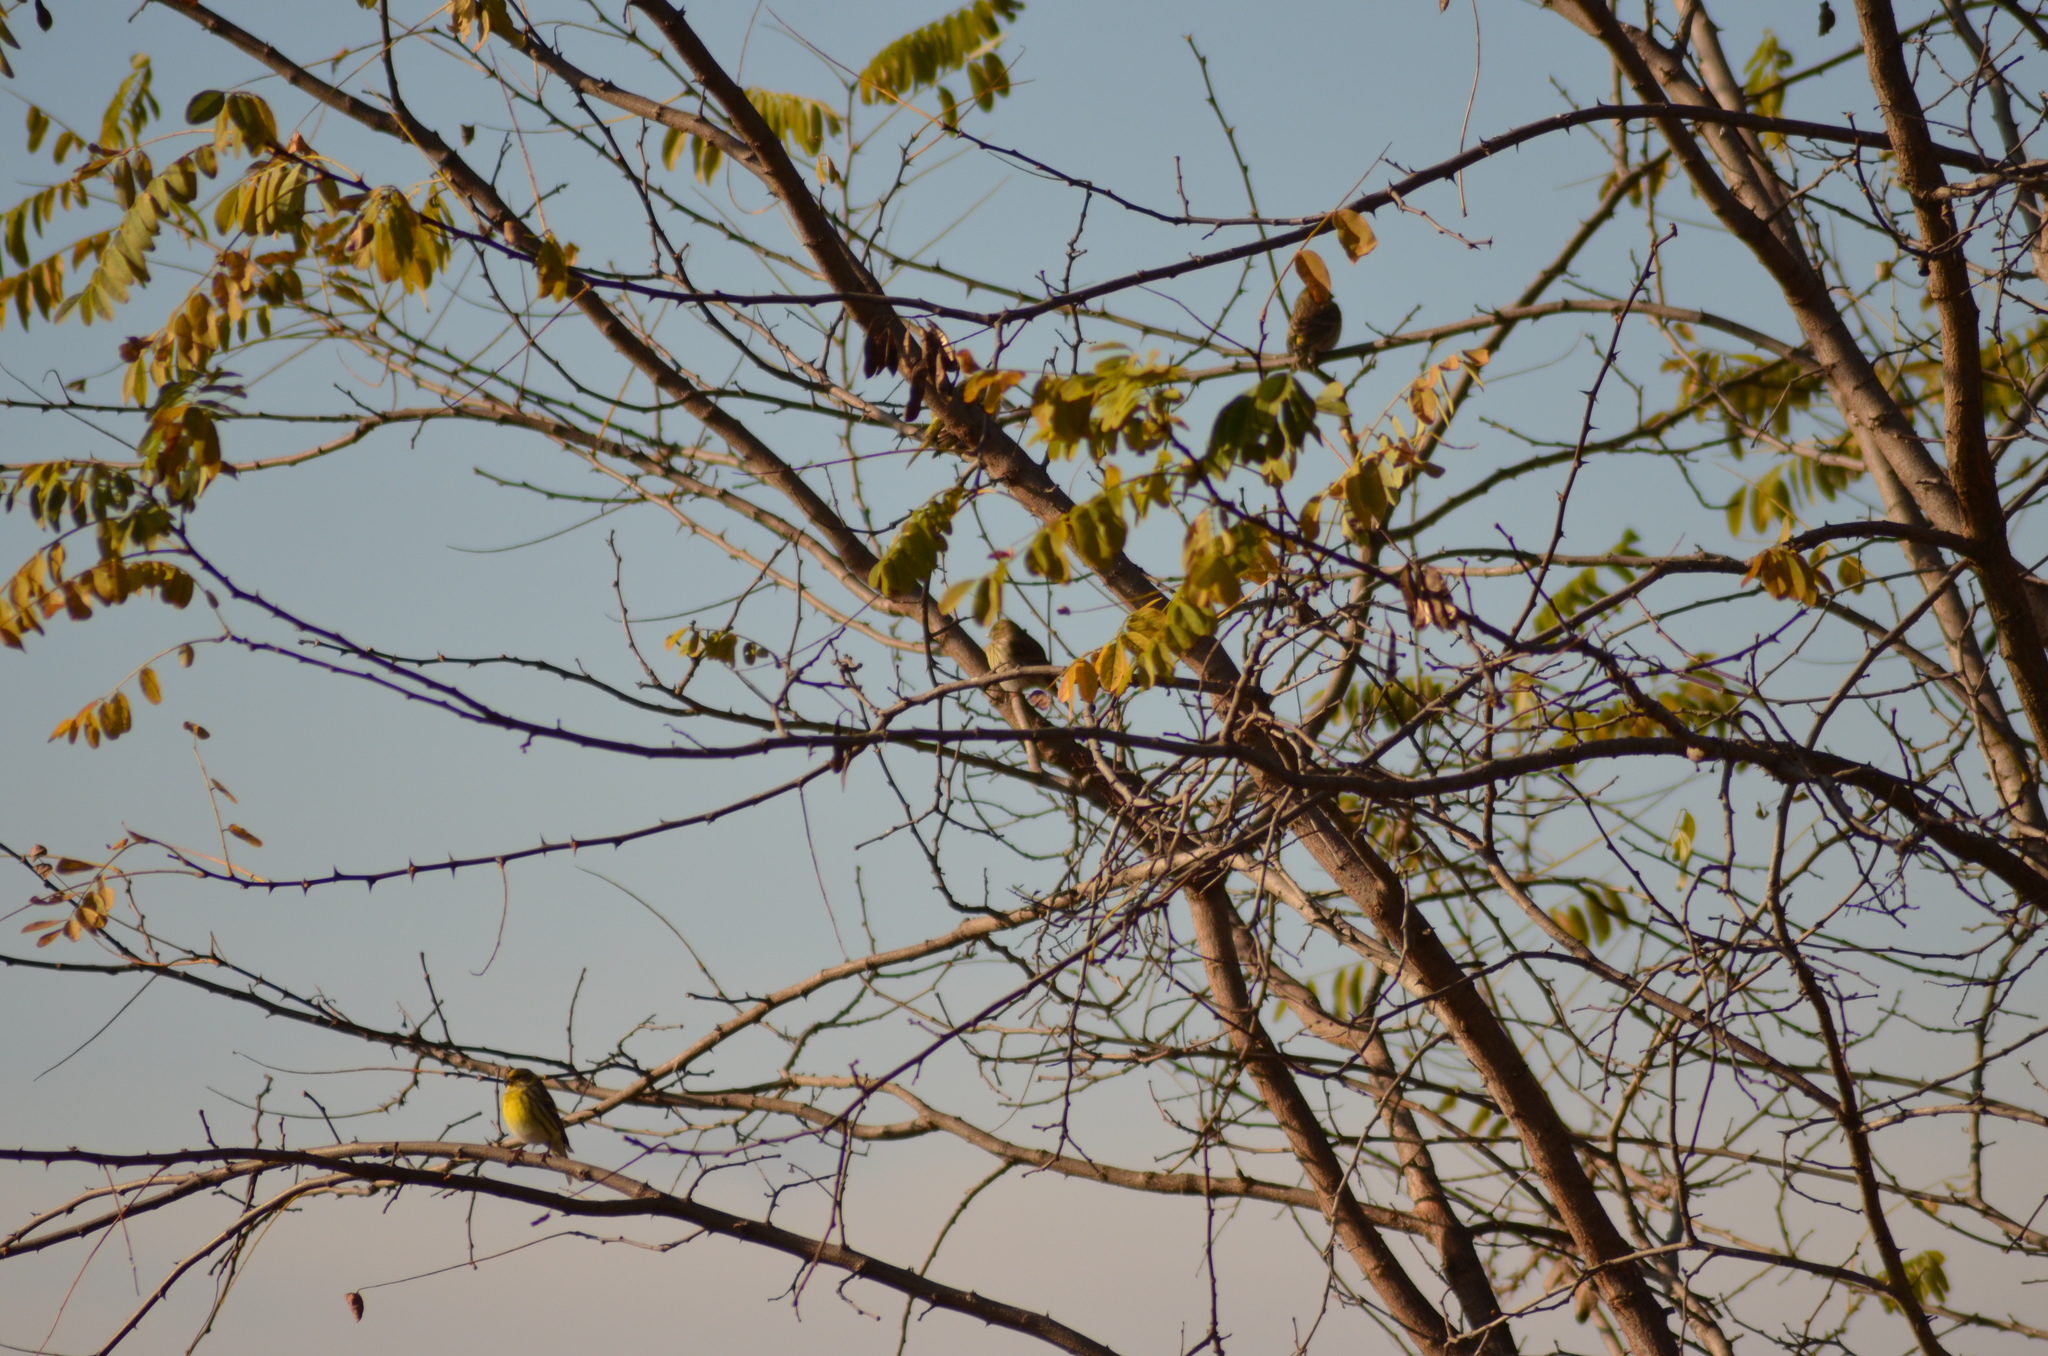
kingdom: Animalia
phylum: Chordata
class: Aves
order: Passeriformes
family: Fringillidae
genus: Serinus
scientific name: Serinus serinus
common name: European serin
